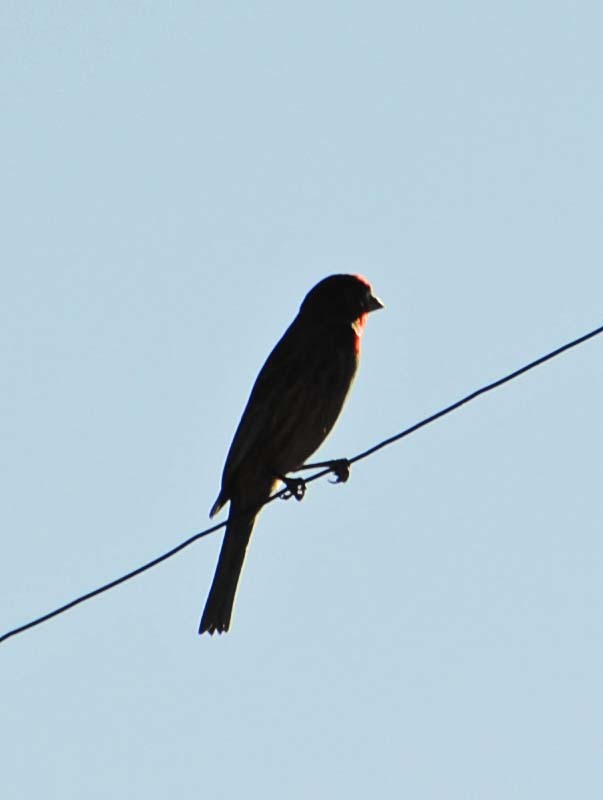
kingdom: Animalia
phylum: Chordata
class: Aves
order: Passeriformes
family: Fringillidae
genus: Haemorhous
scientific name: Haemorhous mexicanus
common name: House finch
